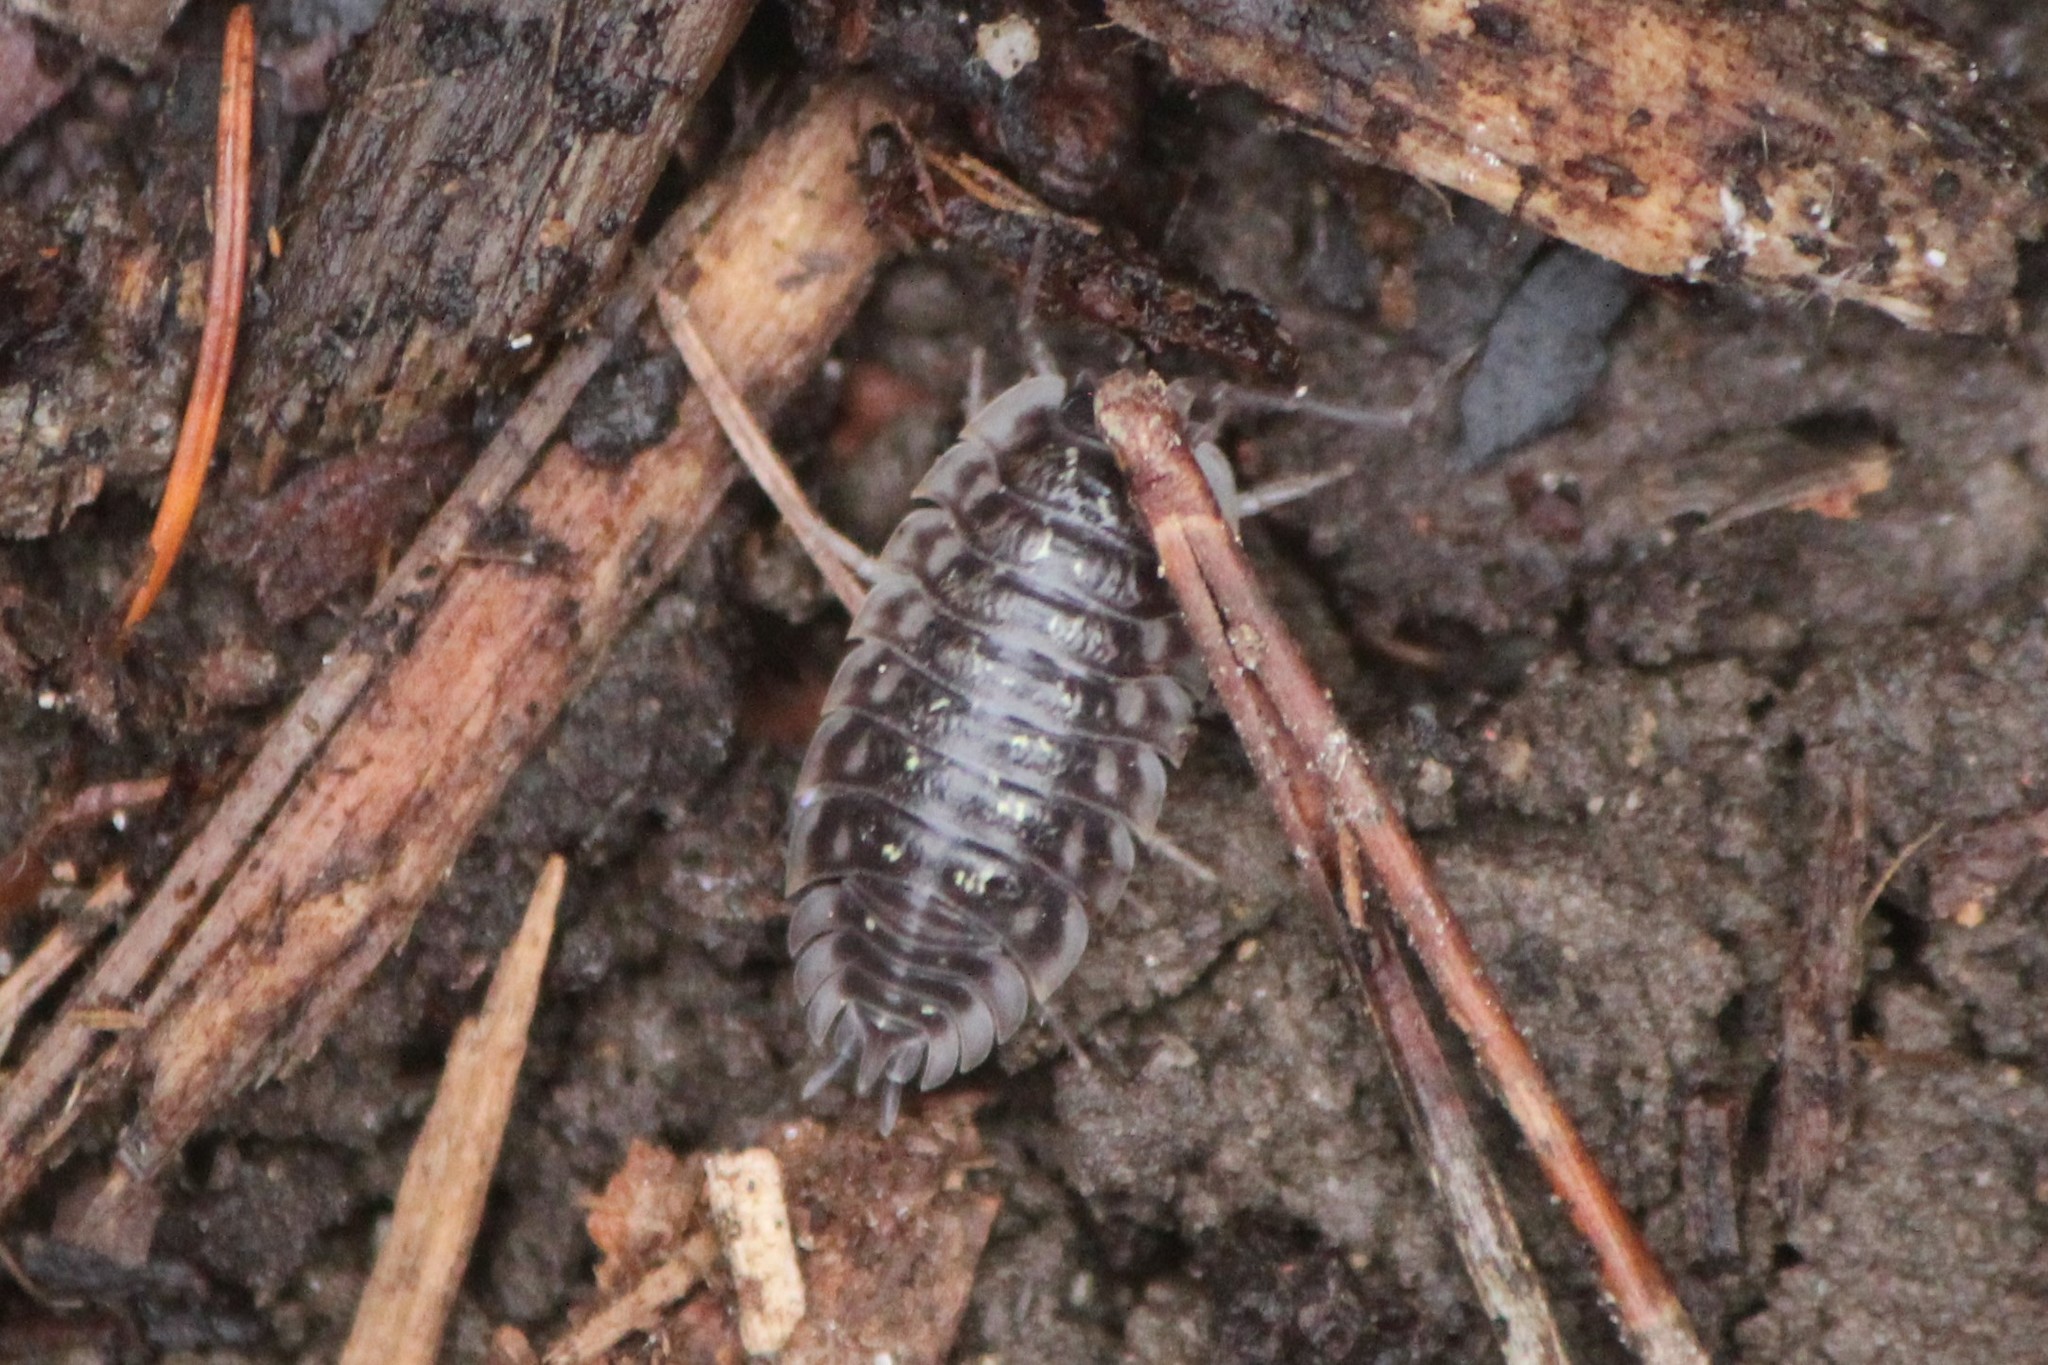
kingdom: Animalia
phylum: Arthropoda
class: Malacostraca
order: Isopoda
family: Oniscidae
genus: Oniscus
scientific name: Oniscus asellus
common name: Common shiny woodlouse
